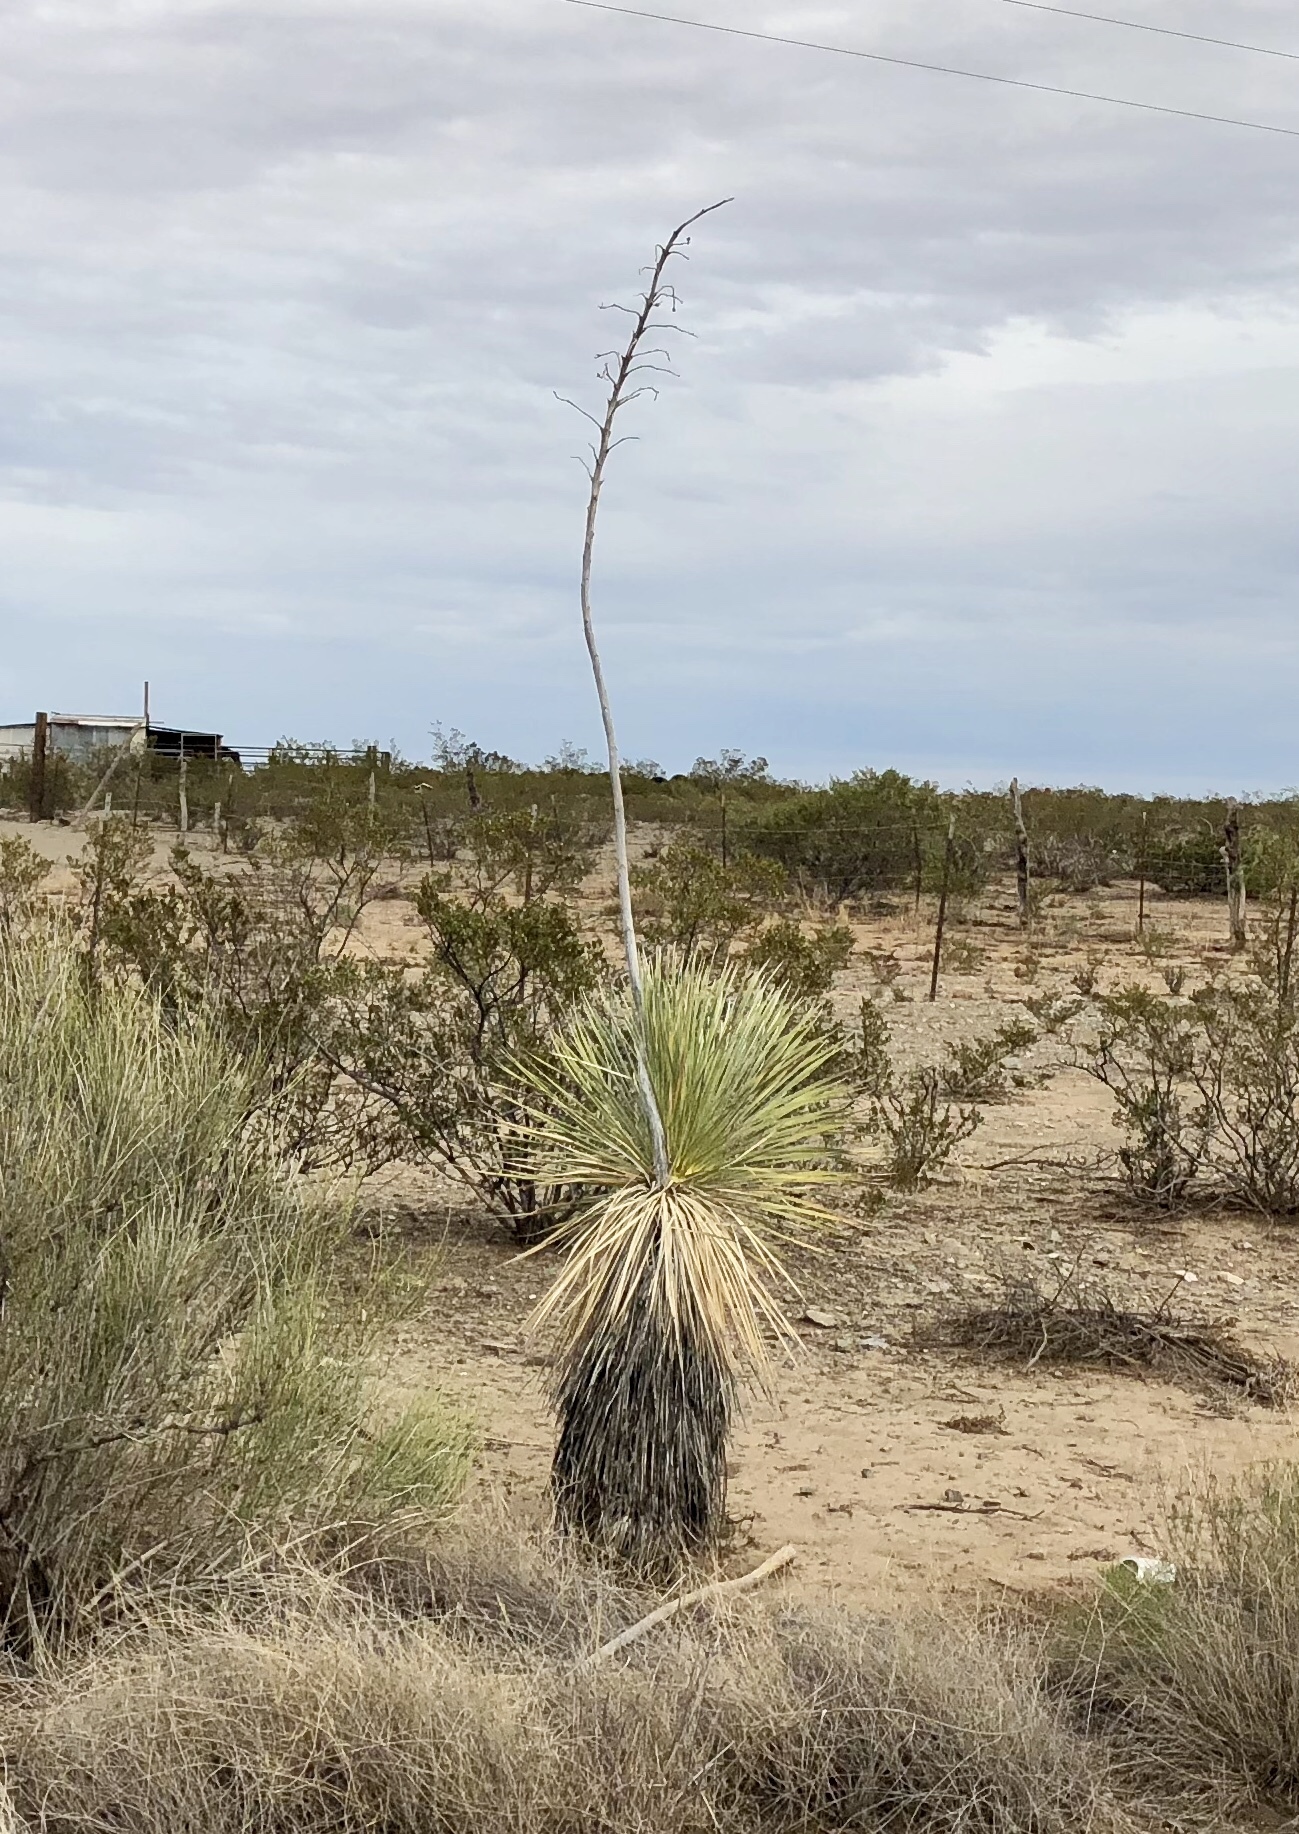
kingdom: Plantae
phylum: Tracheophyta
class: Liliopsida
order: Asparagales
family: Asparagaceae
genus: Yucca
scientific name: Yucca elata
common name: Palmella
